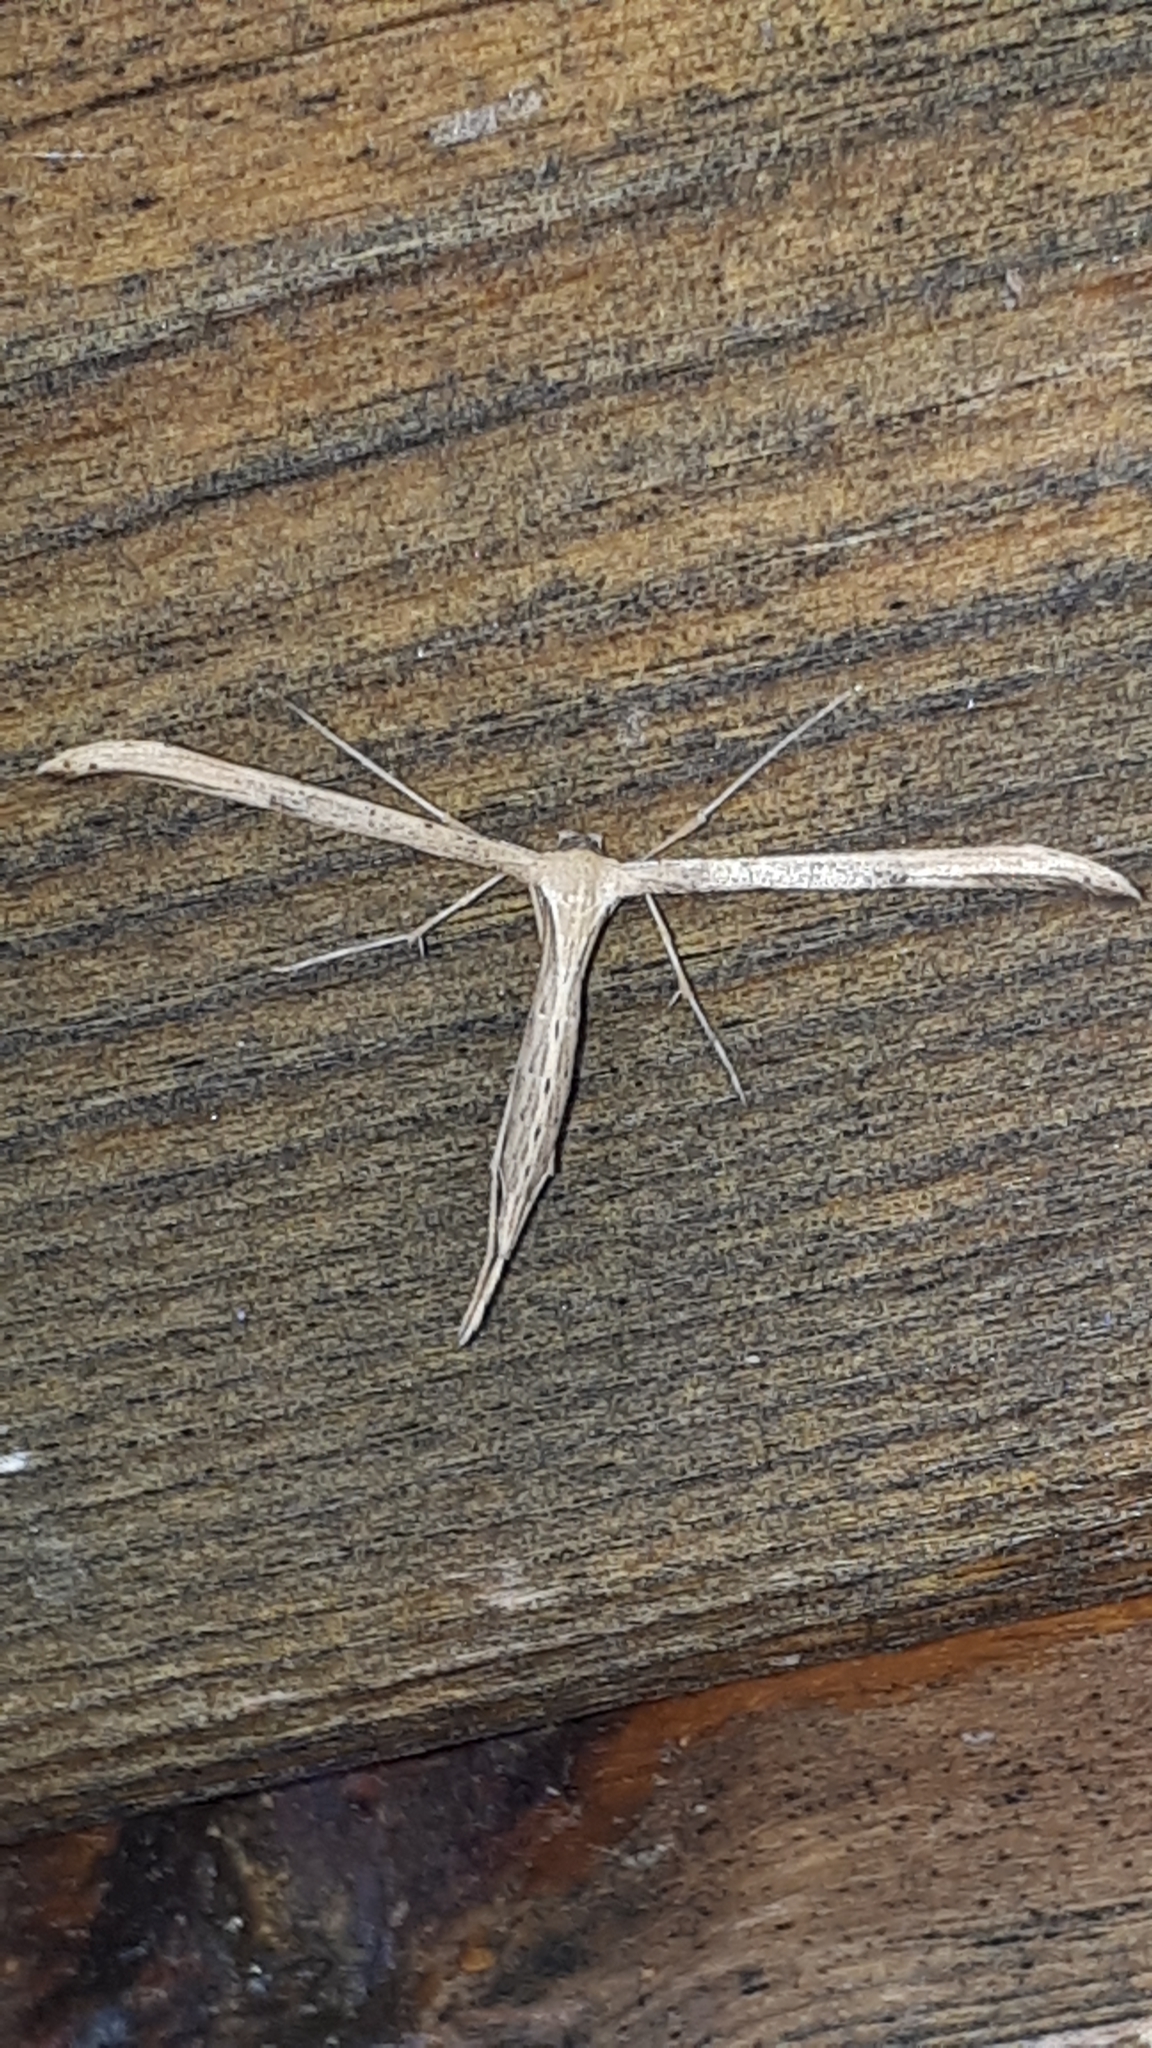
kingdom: Animalia
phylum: Arthropoda
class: Insecta
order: Lepidoptera
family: Pterophoridae
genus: Emmelina
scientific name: Emmelina monodactyla
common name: Common plume
